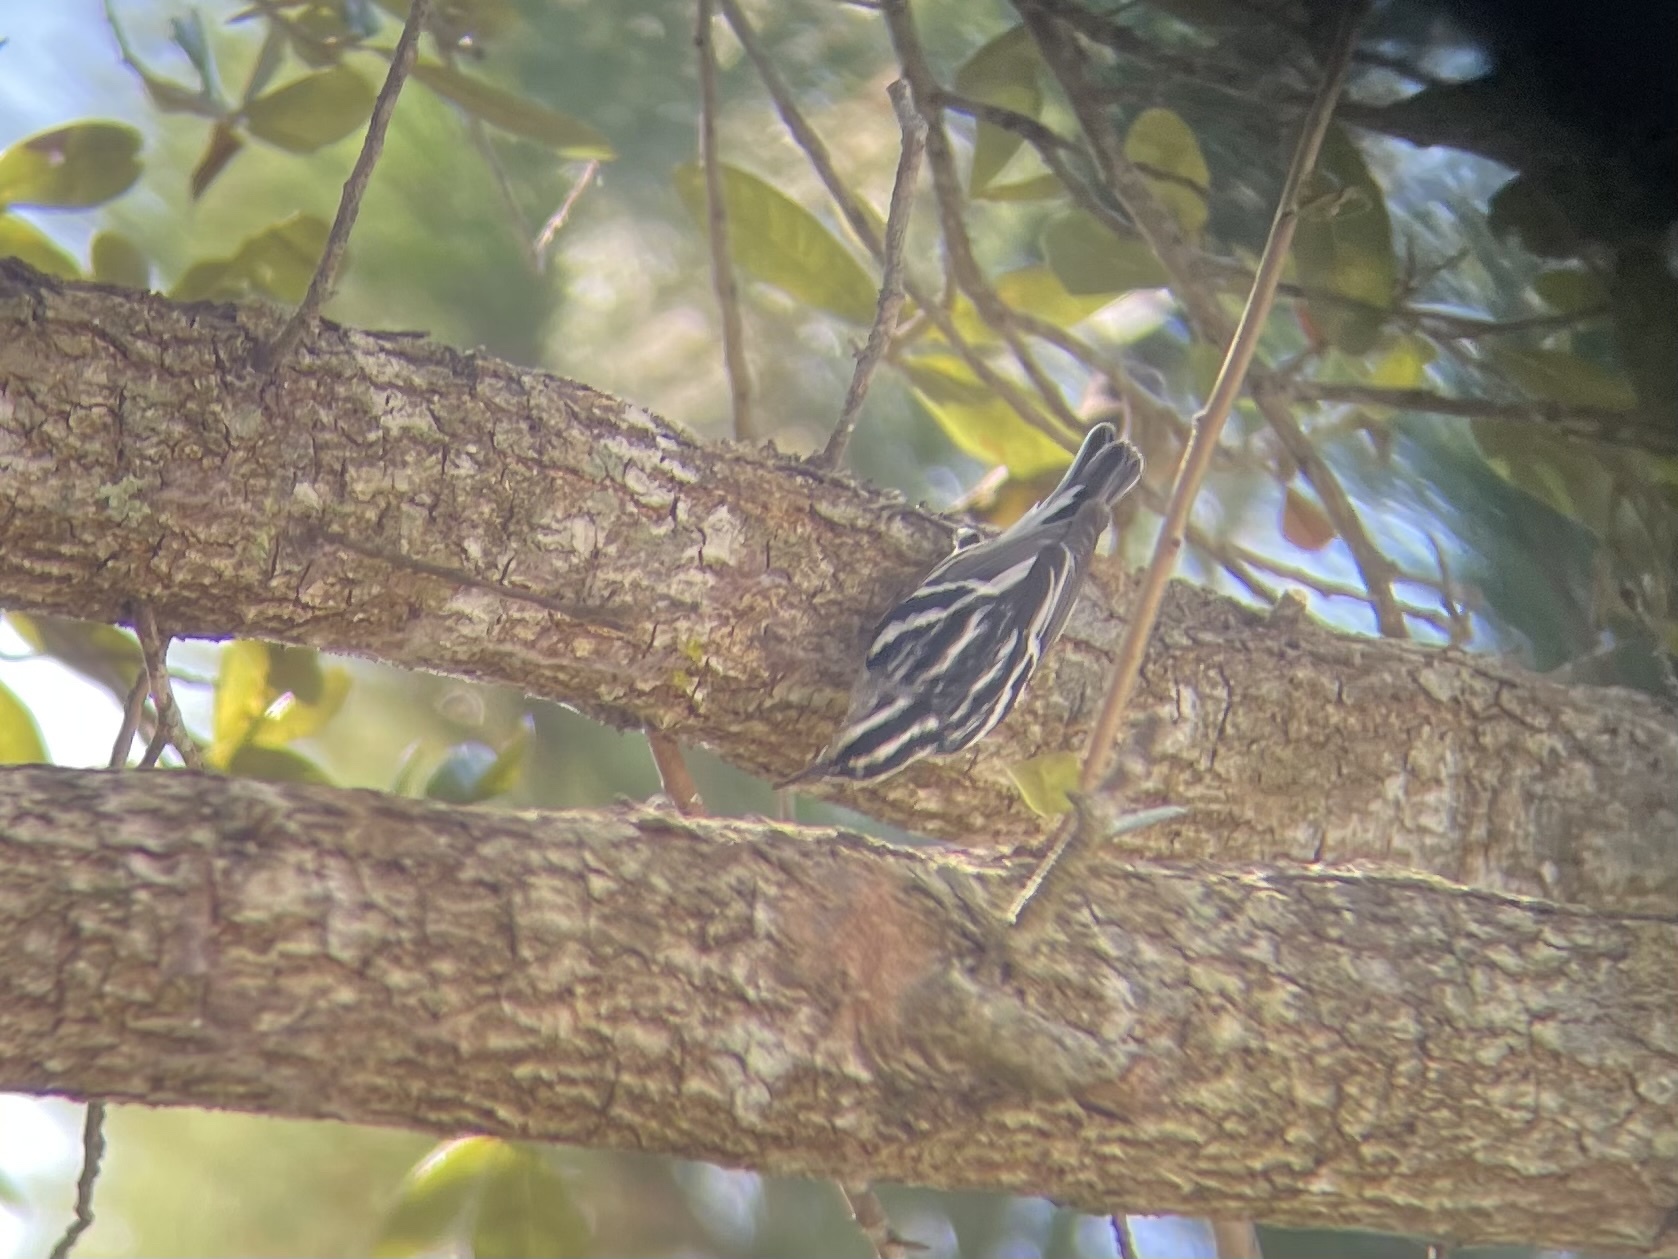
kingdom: Animalia
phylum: Chordata
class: Aves
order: Passeriformes
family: Parulidae
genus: Mniotilta
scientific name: Mniotilta varia
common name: Black-and-white warbler
